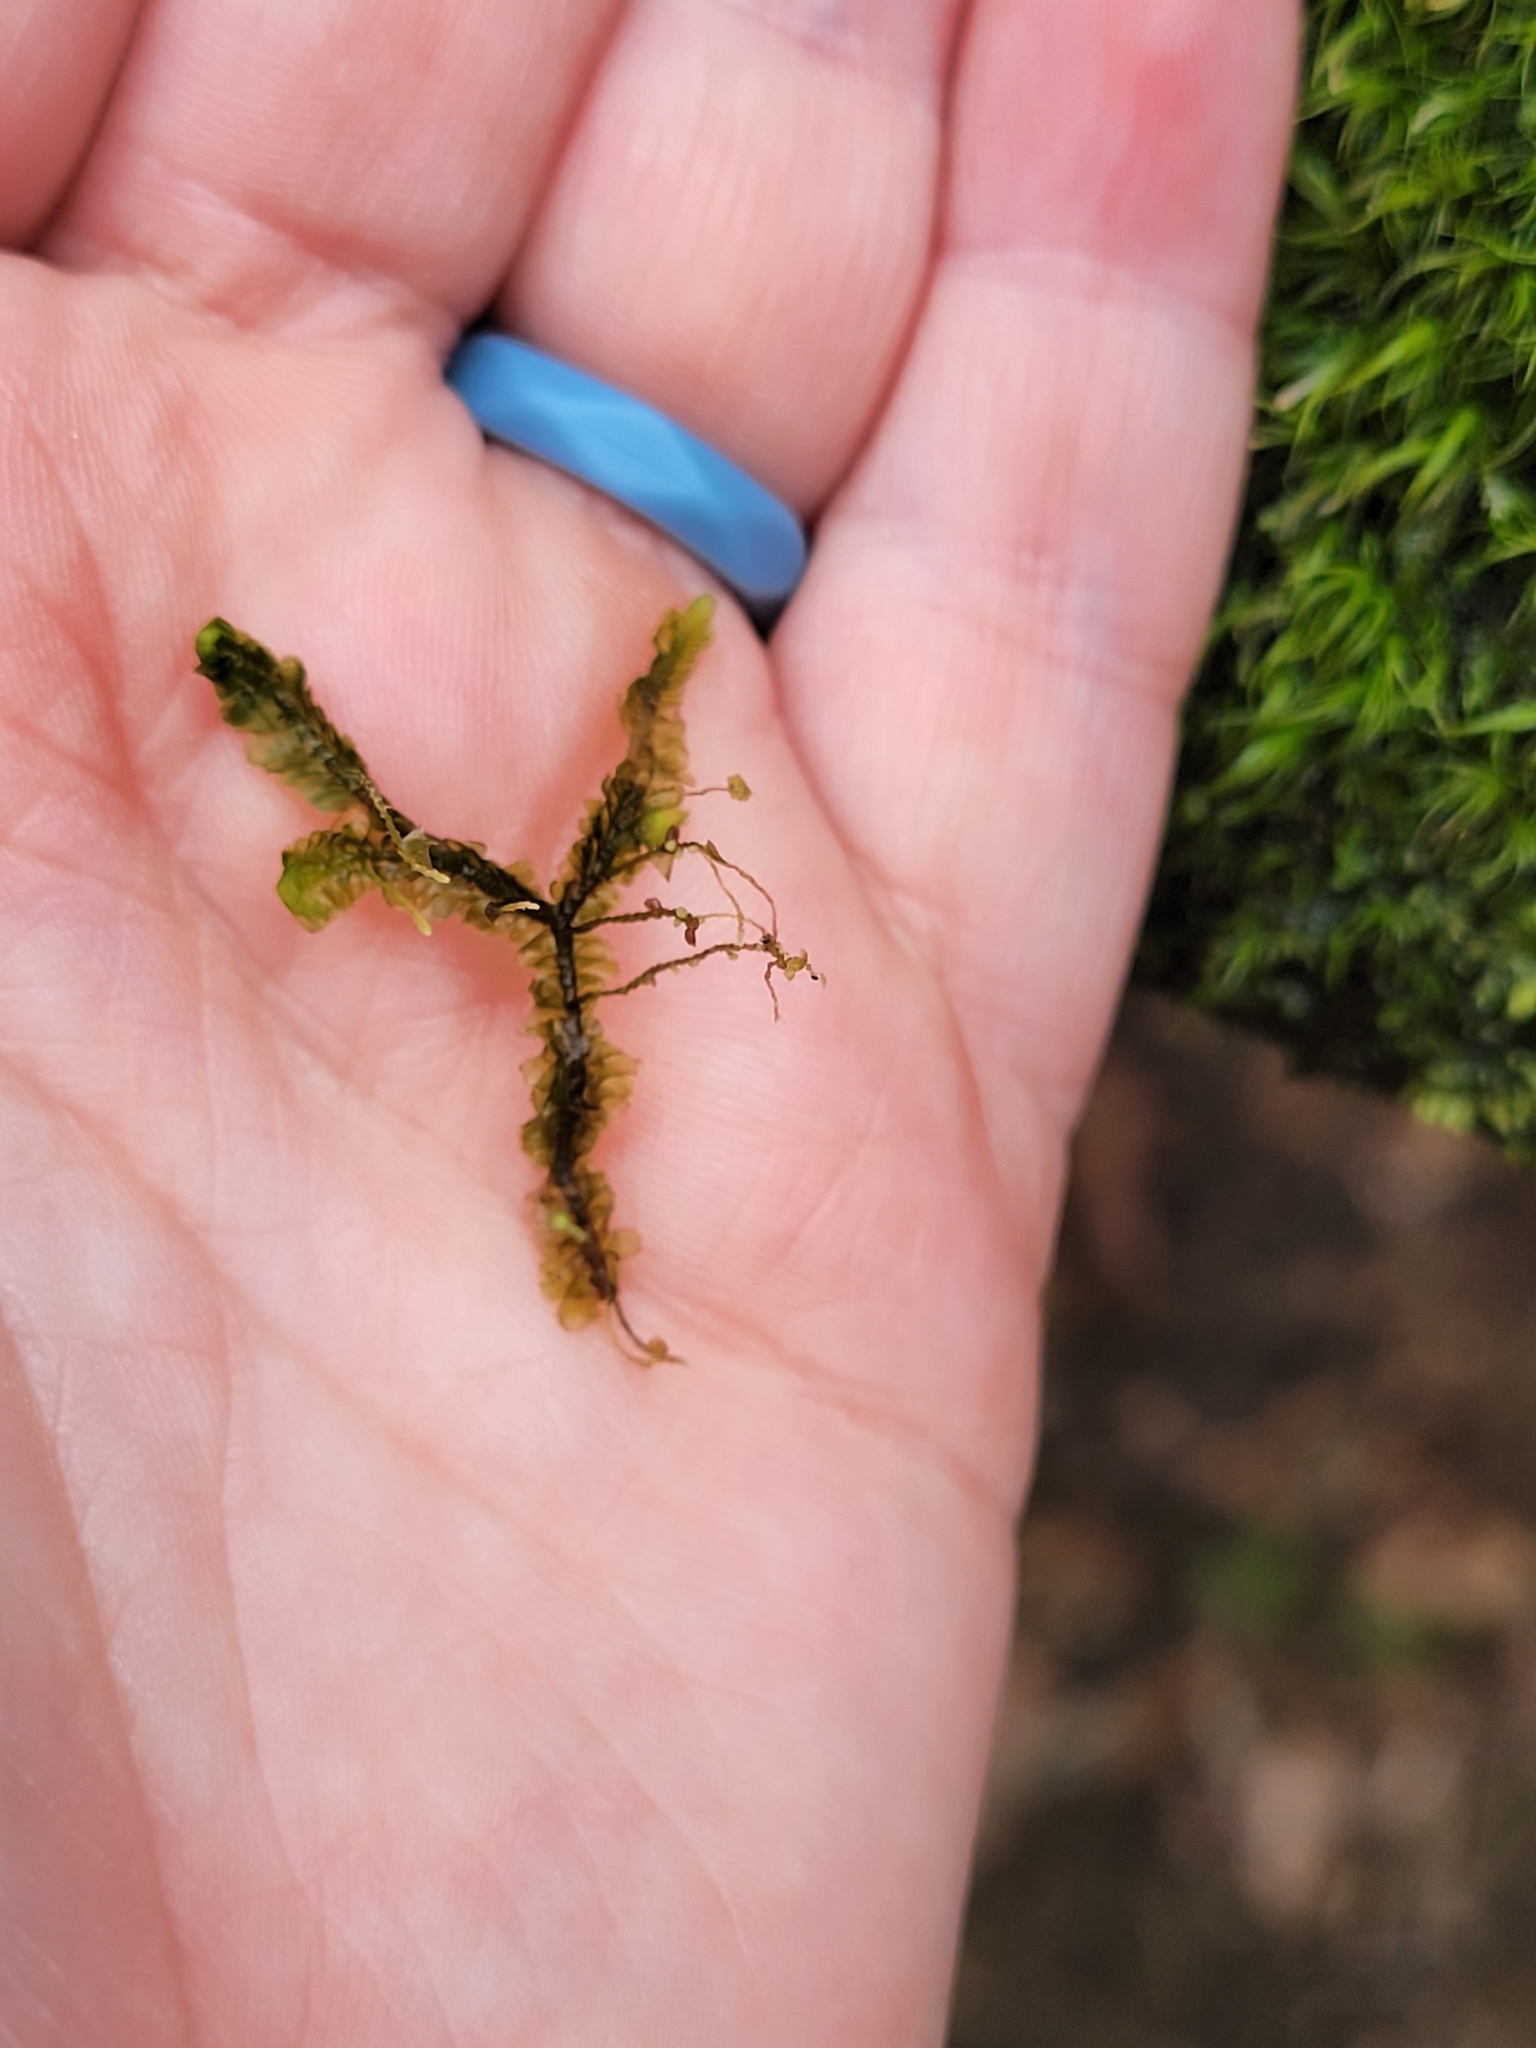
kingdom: Plantae
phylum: Marchantiophyta
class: Jungermanniopsida
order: Jungermanniales
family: Lepidoziaceae
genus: Bazzania
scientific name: Bazzania trilobata
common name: Three-lobed whipwort
